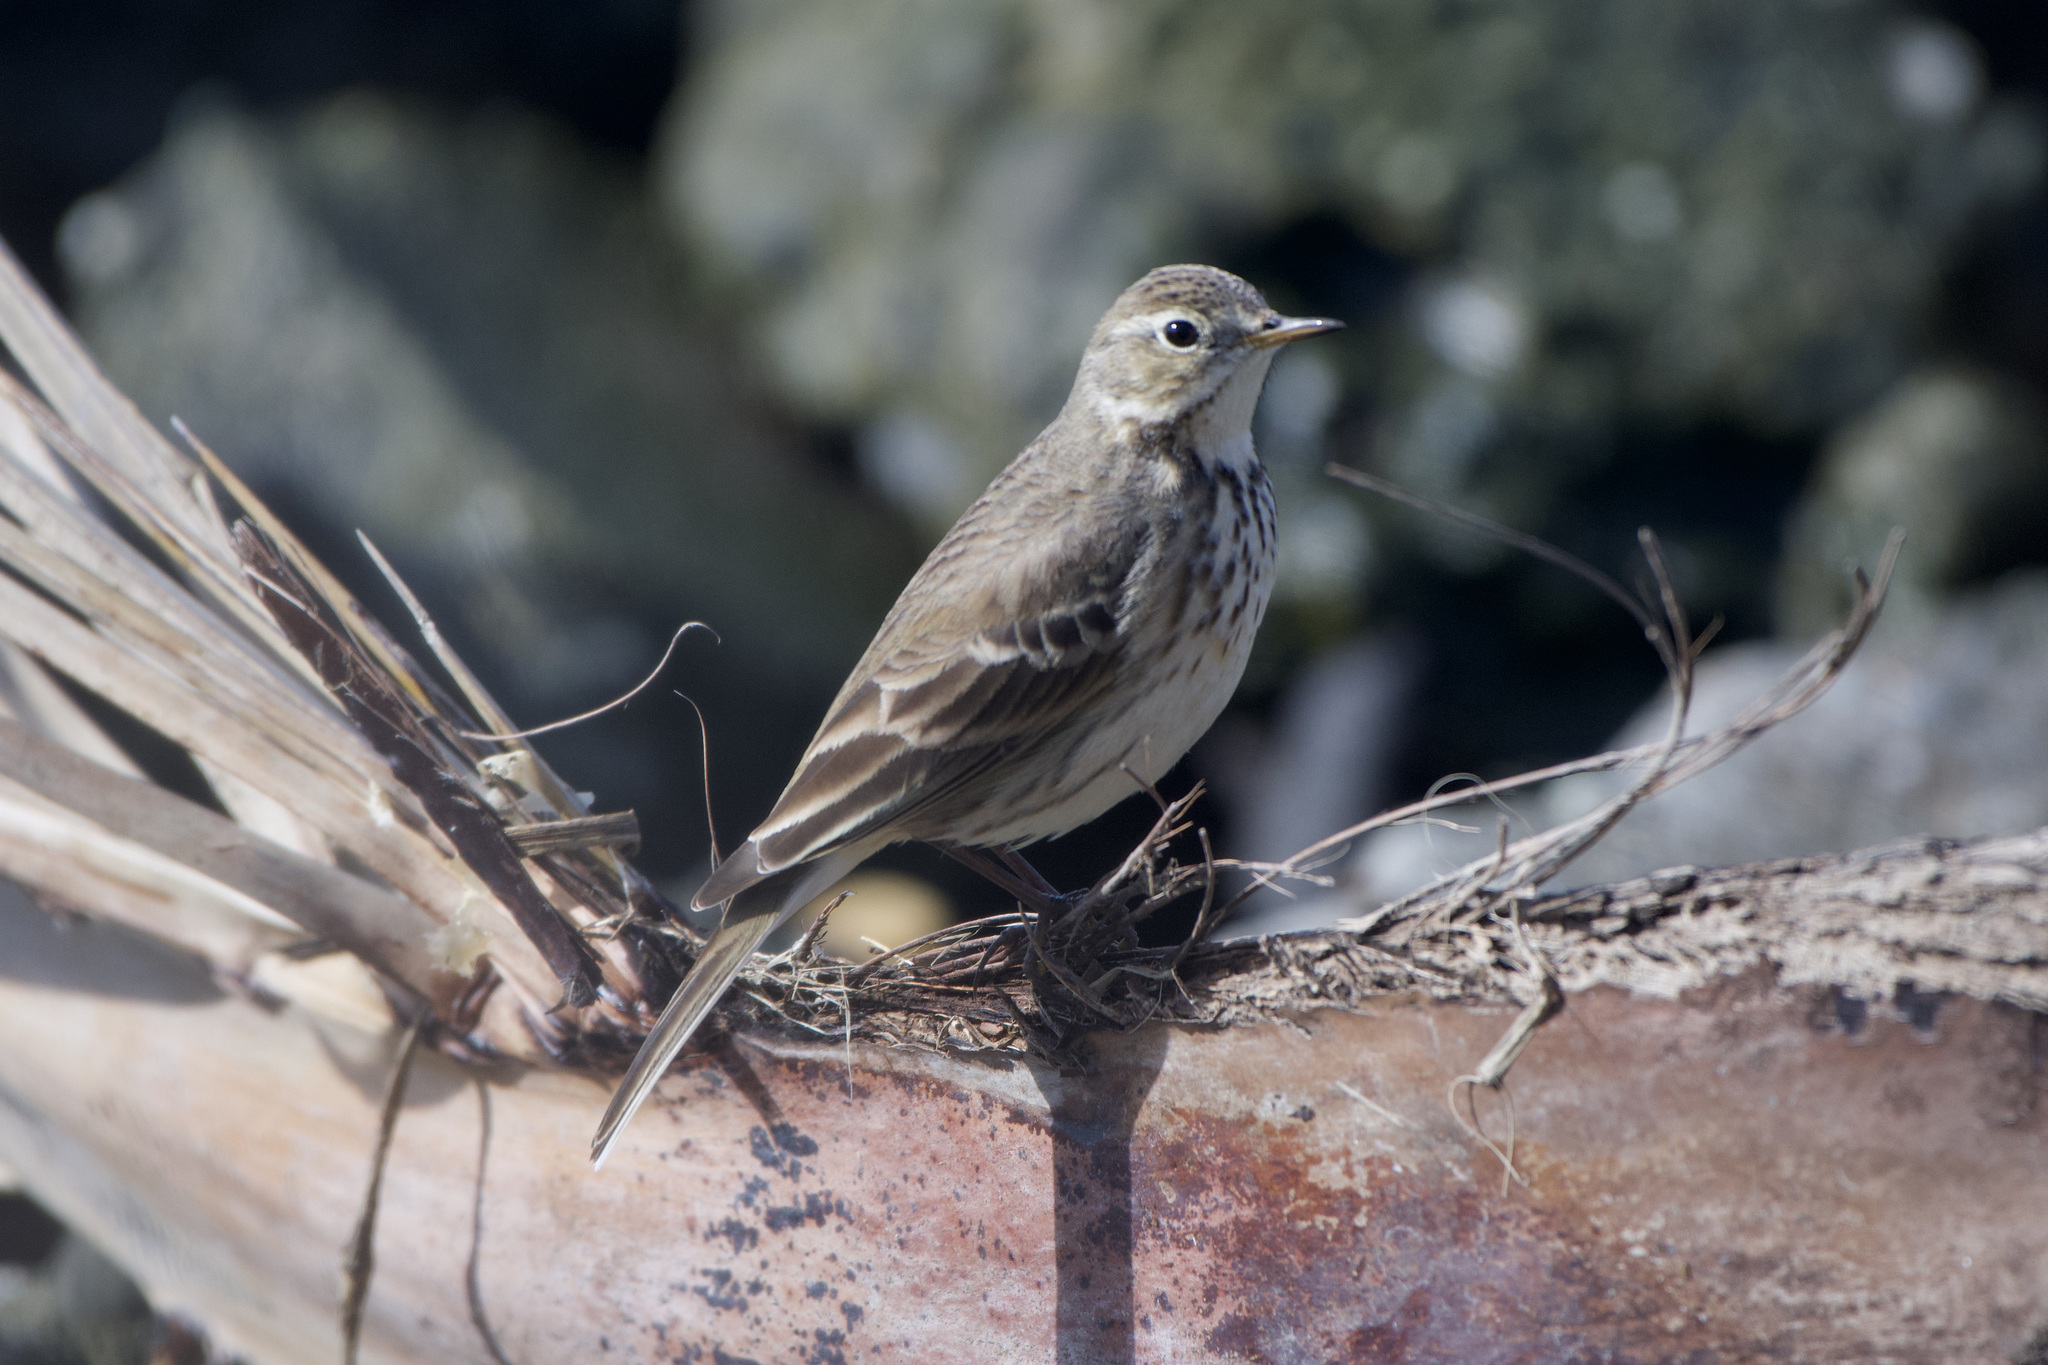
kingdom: Animalia
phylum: Chordata
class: Aves
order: Passeriformes
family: Motacillidae
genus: Anthus
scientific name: Anthus rubescens
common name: Buff-bellied pipit
